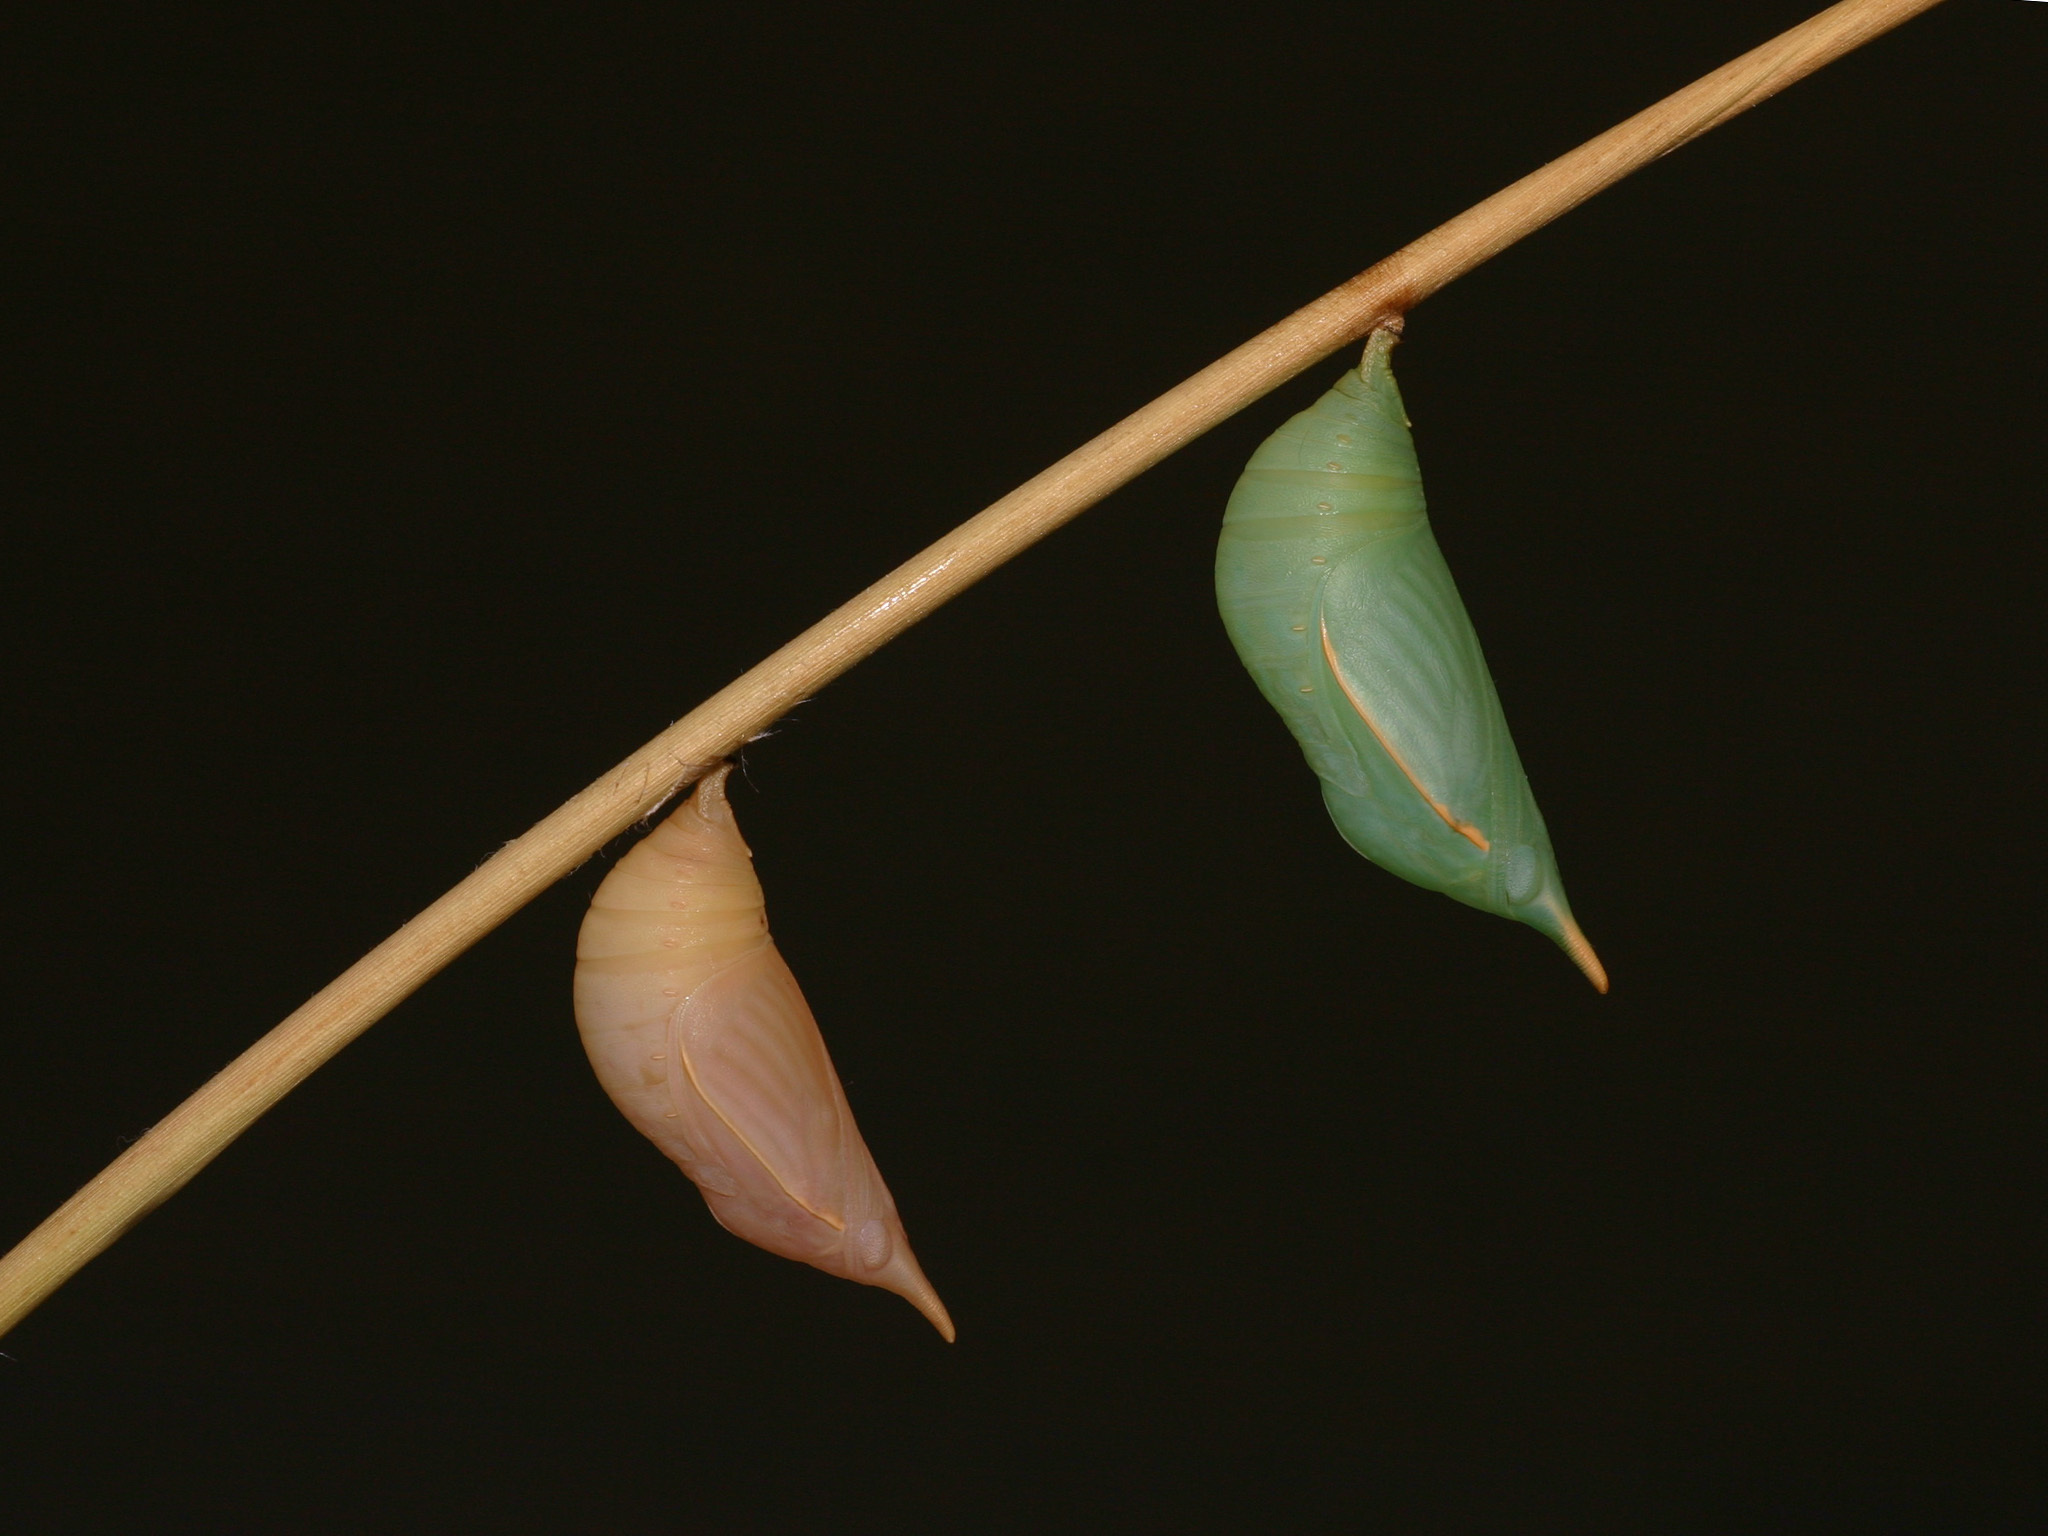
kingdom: Animalia
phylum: Arthropoda
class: Insecta
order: Lepidoptera
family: Nymphalidae
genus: Discophora
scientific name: Discophora sondaica
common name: Common duffer
